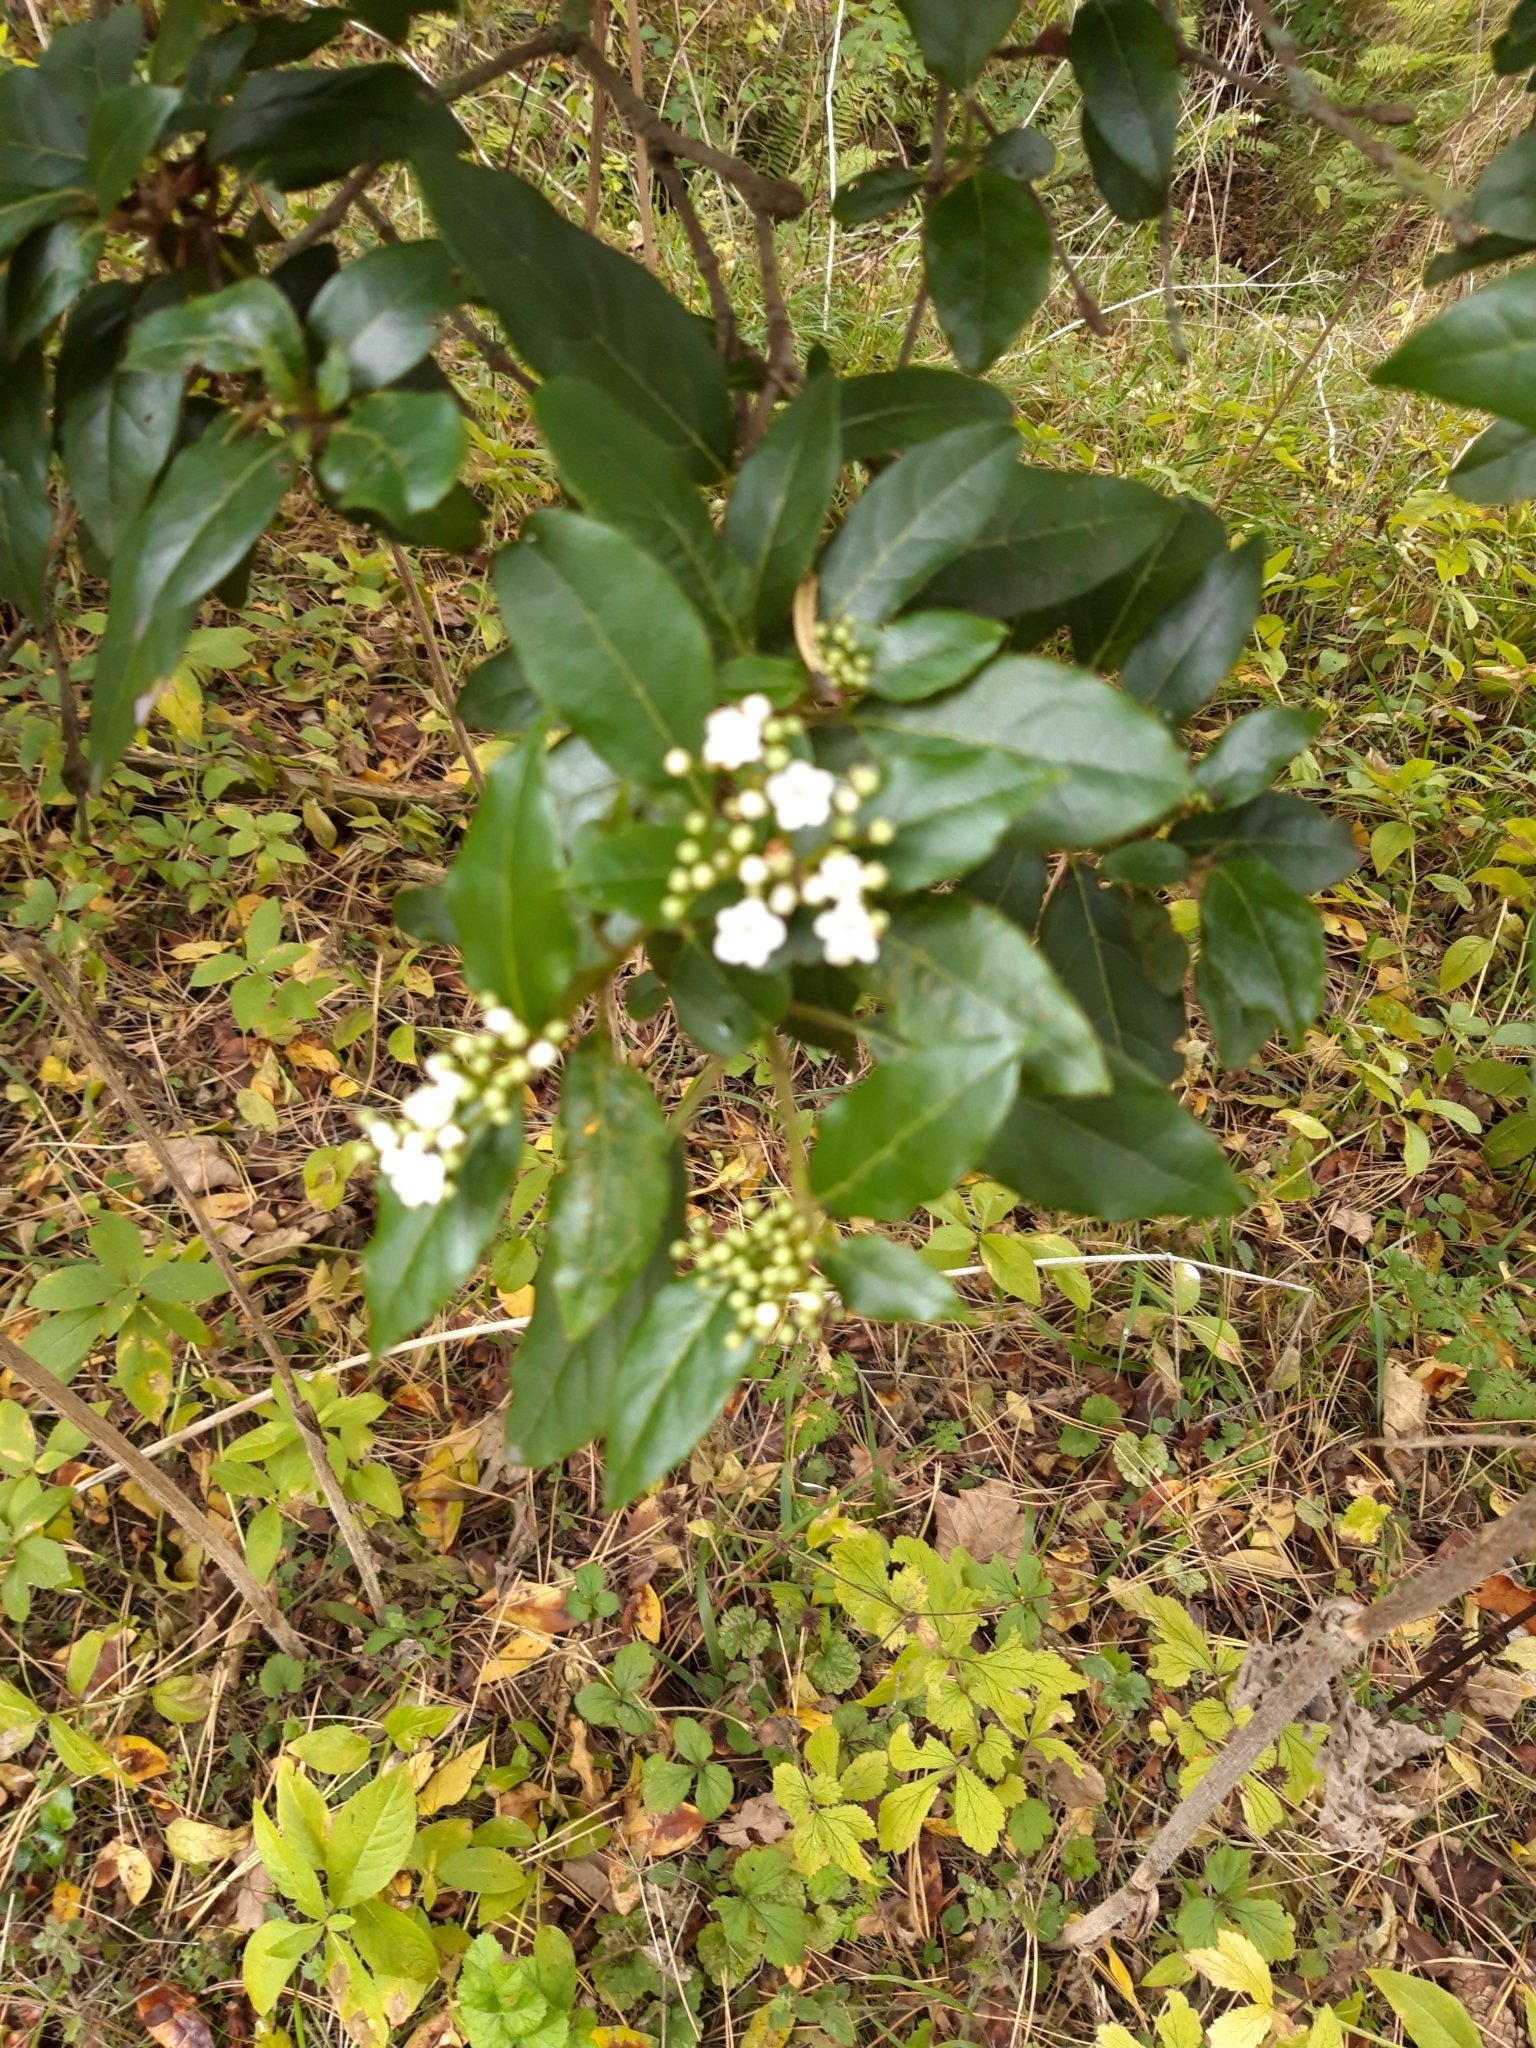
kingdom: Plantae
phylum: Tracheophyta
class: Magnoliopsida
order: Dipsacales
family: Viburnaceae
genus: Viburnum
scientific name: Viburnum tinus
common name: Laurustinus
